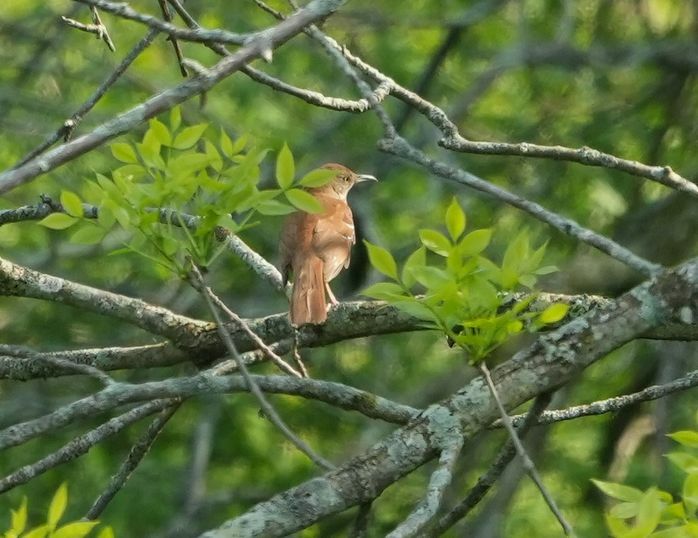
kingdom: Animalia
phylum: Chordata
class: Aves
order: Passeriformes
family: Mimidae
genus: Toxostoma
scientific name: Toxostoma rufum
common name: Brown thrasher
